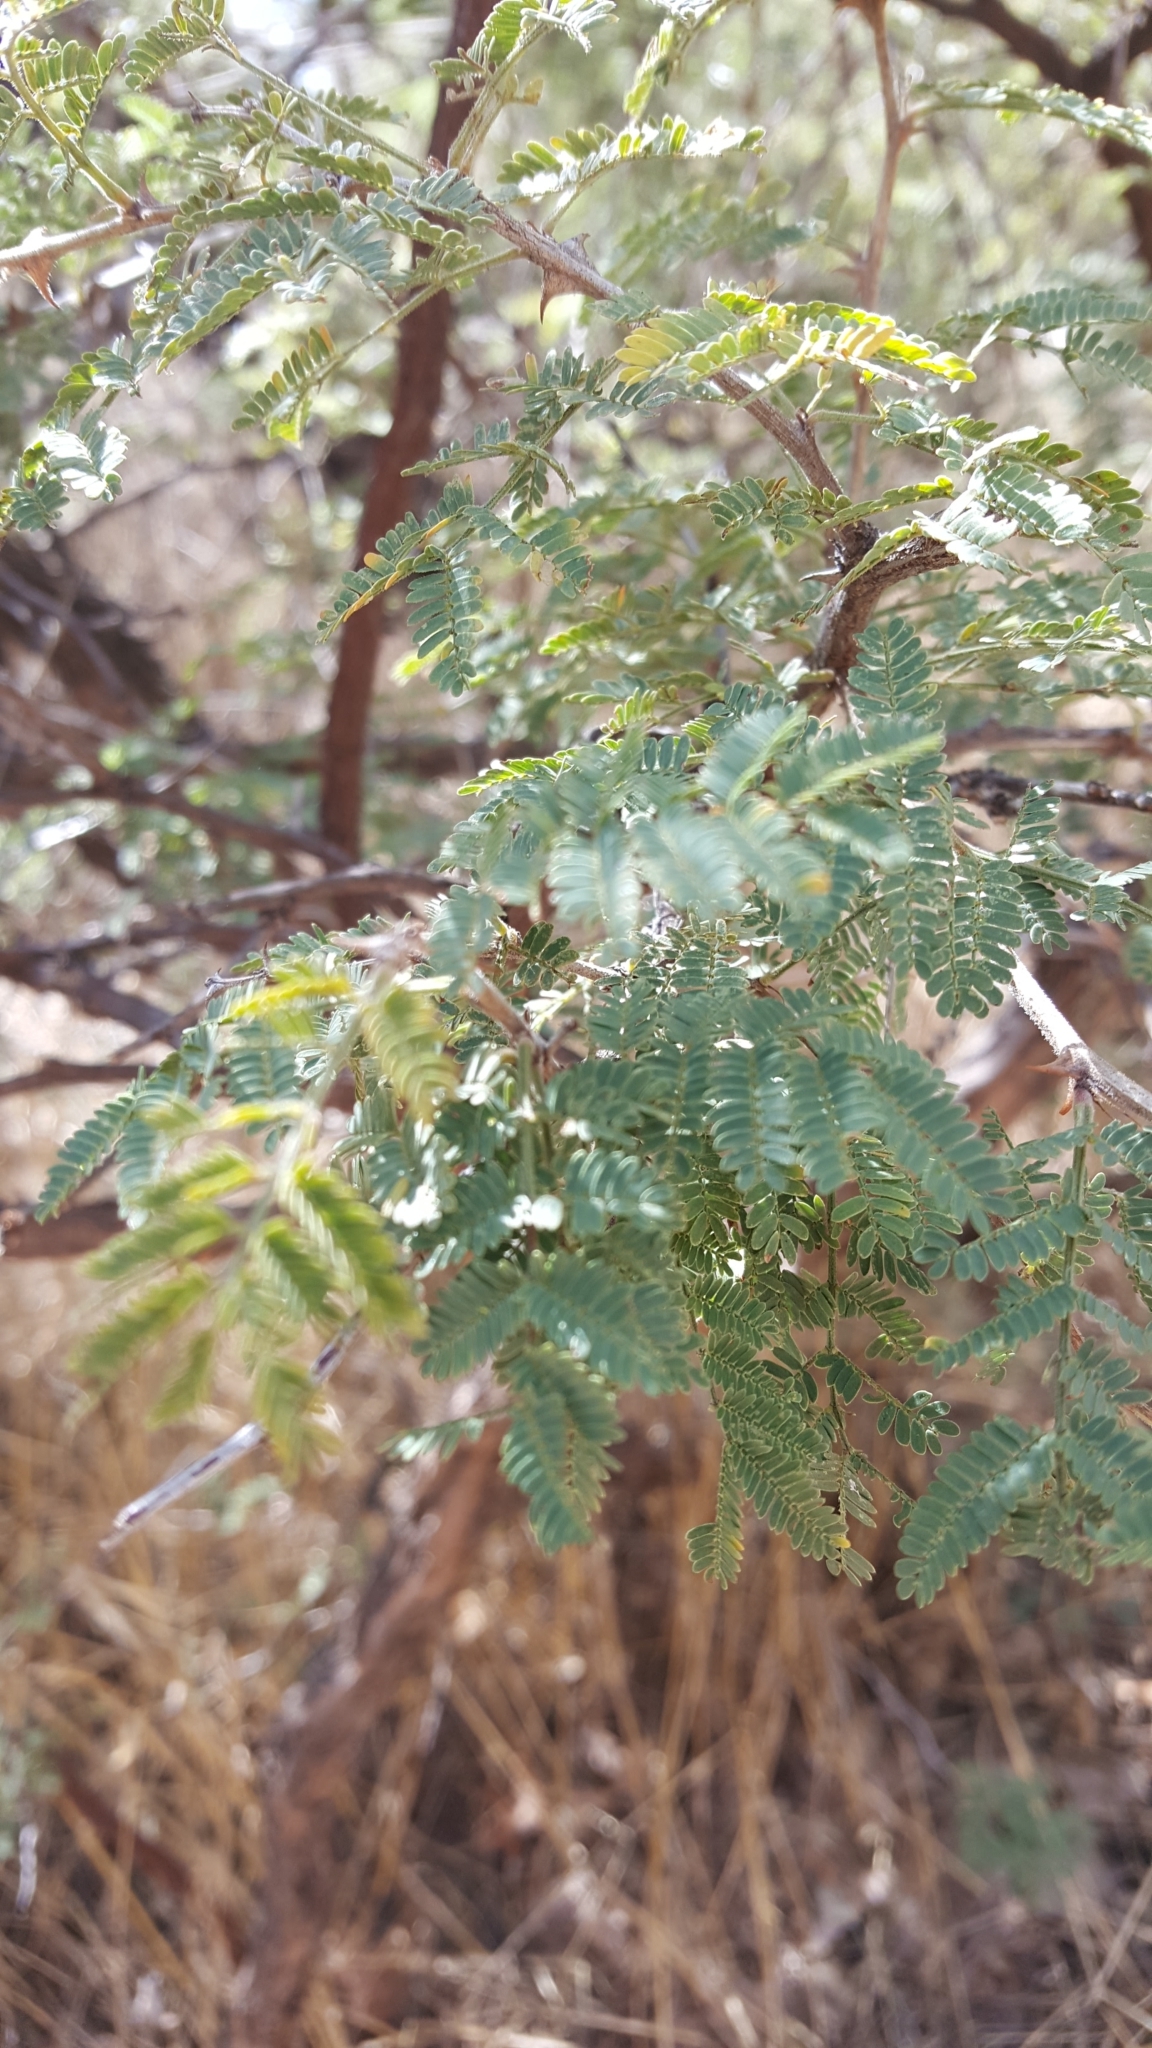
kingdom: Plantae
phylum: Tracheophyta
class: Magnoliopsida
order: Fabales
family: Fabaceae
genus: Mimosa
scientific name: Mimosa biuncifera
